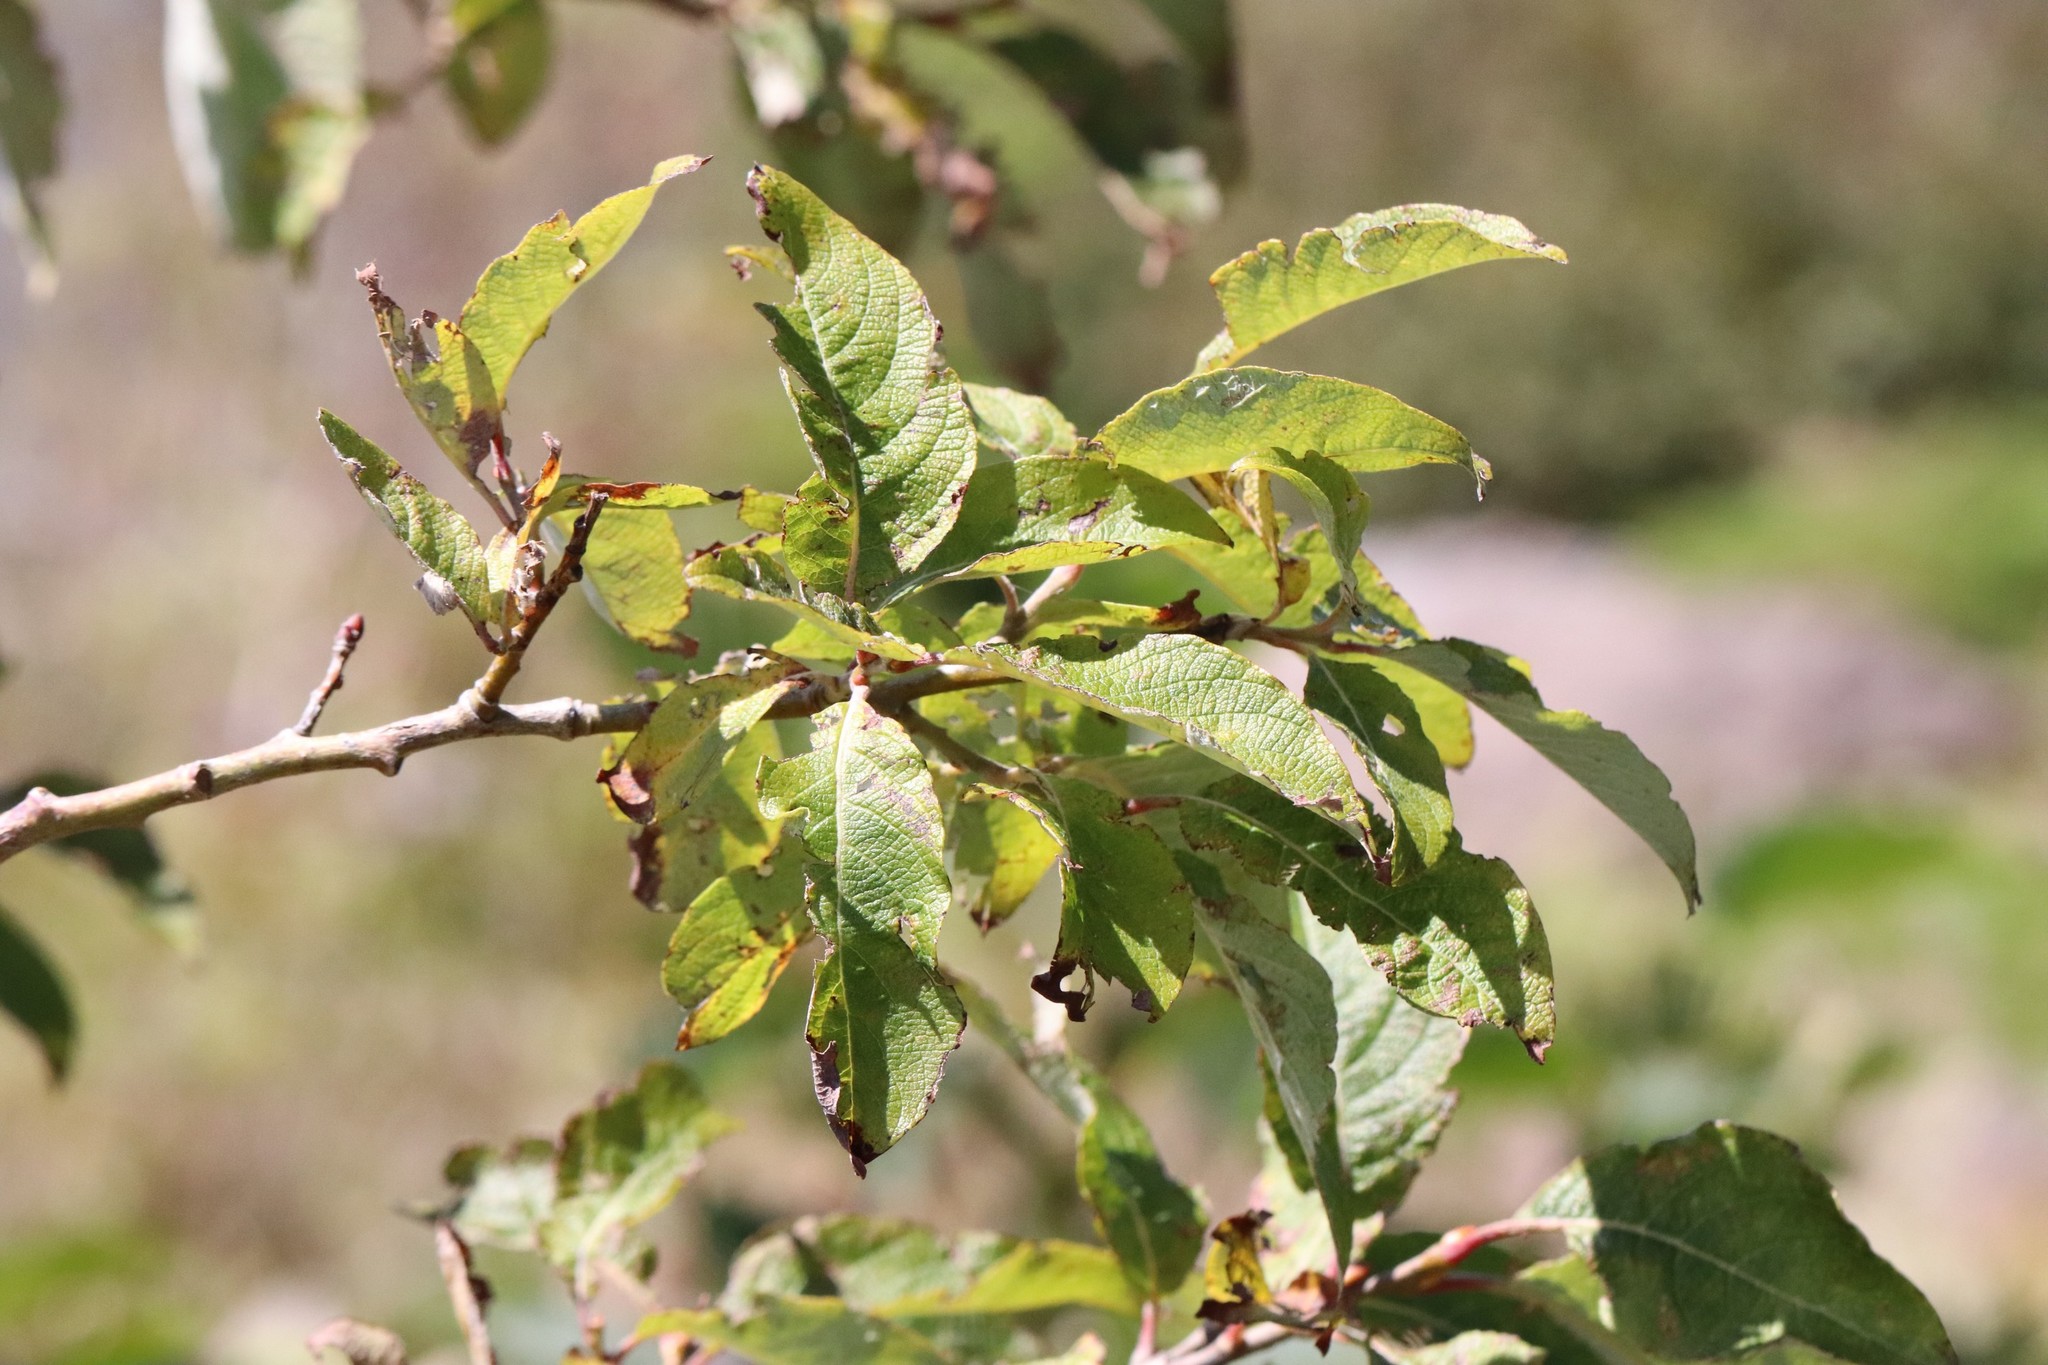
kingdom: Plantae
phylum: Tracheophyta
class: Magnoliopsida
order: Malpighiales
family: Salicaceae
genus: Salix
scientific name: Salix caprea
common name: Goat willow
